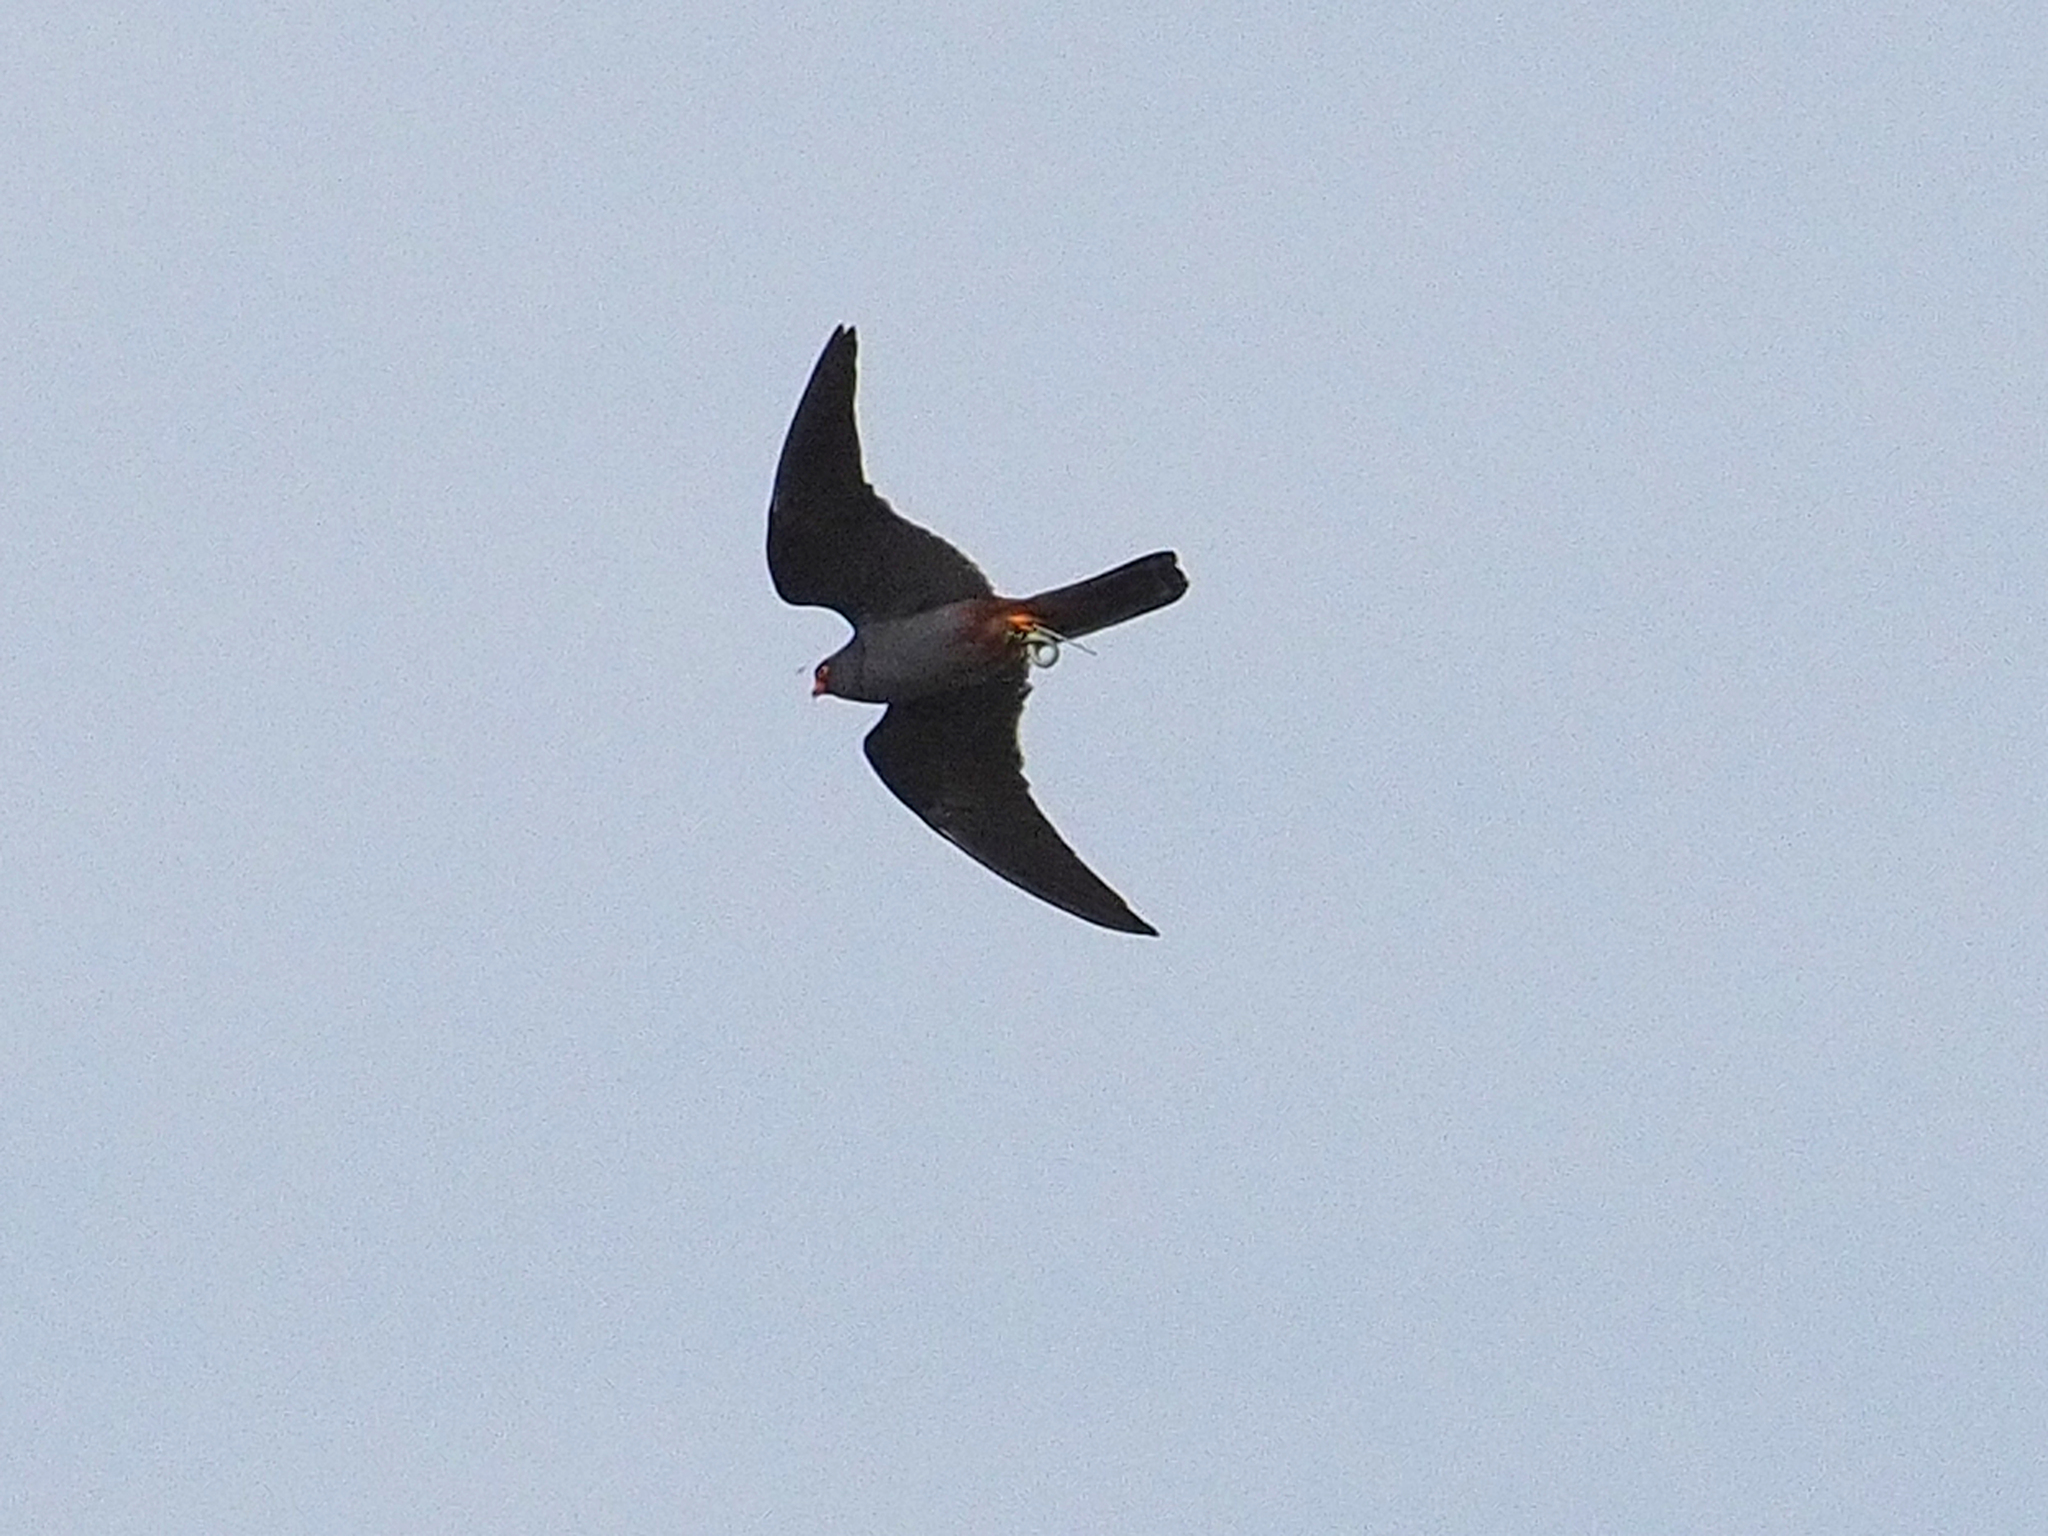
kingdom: Animalia
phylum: Chordata
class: Aves
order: Falconiformes
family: Falconidae
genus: Falco
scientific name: Falco vespertinus
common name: Red-footed falcon
